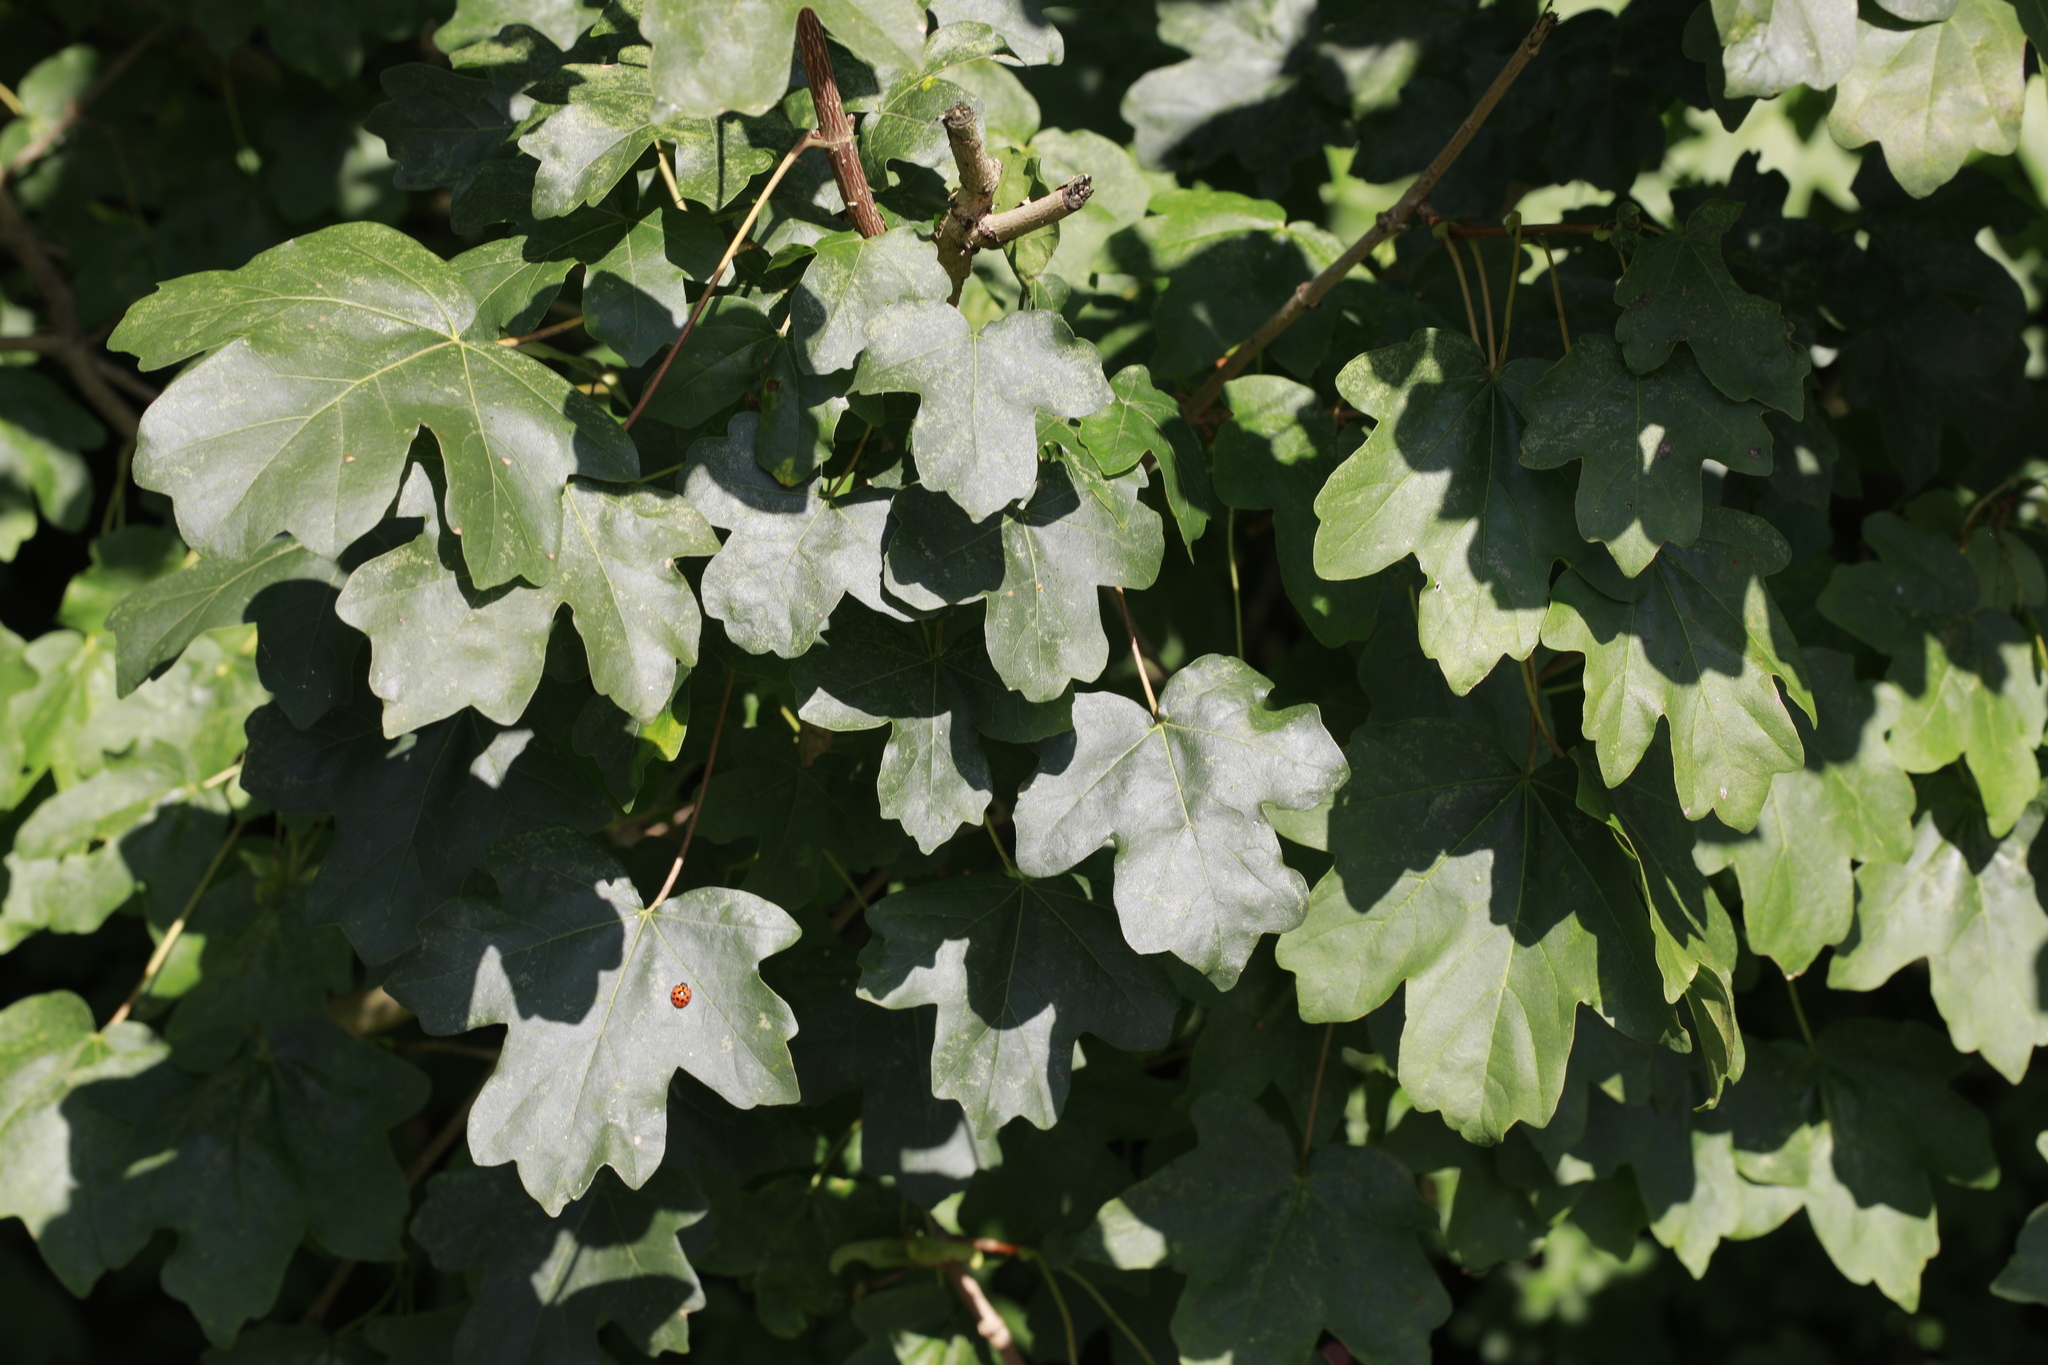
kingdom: Plantae
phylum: Tracheophyta
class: Magnoliopsida
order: Sapindales
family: Sapindaceae
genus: Acer
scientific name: Acer campestre
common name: Field maple
